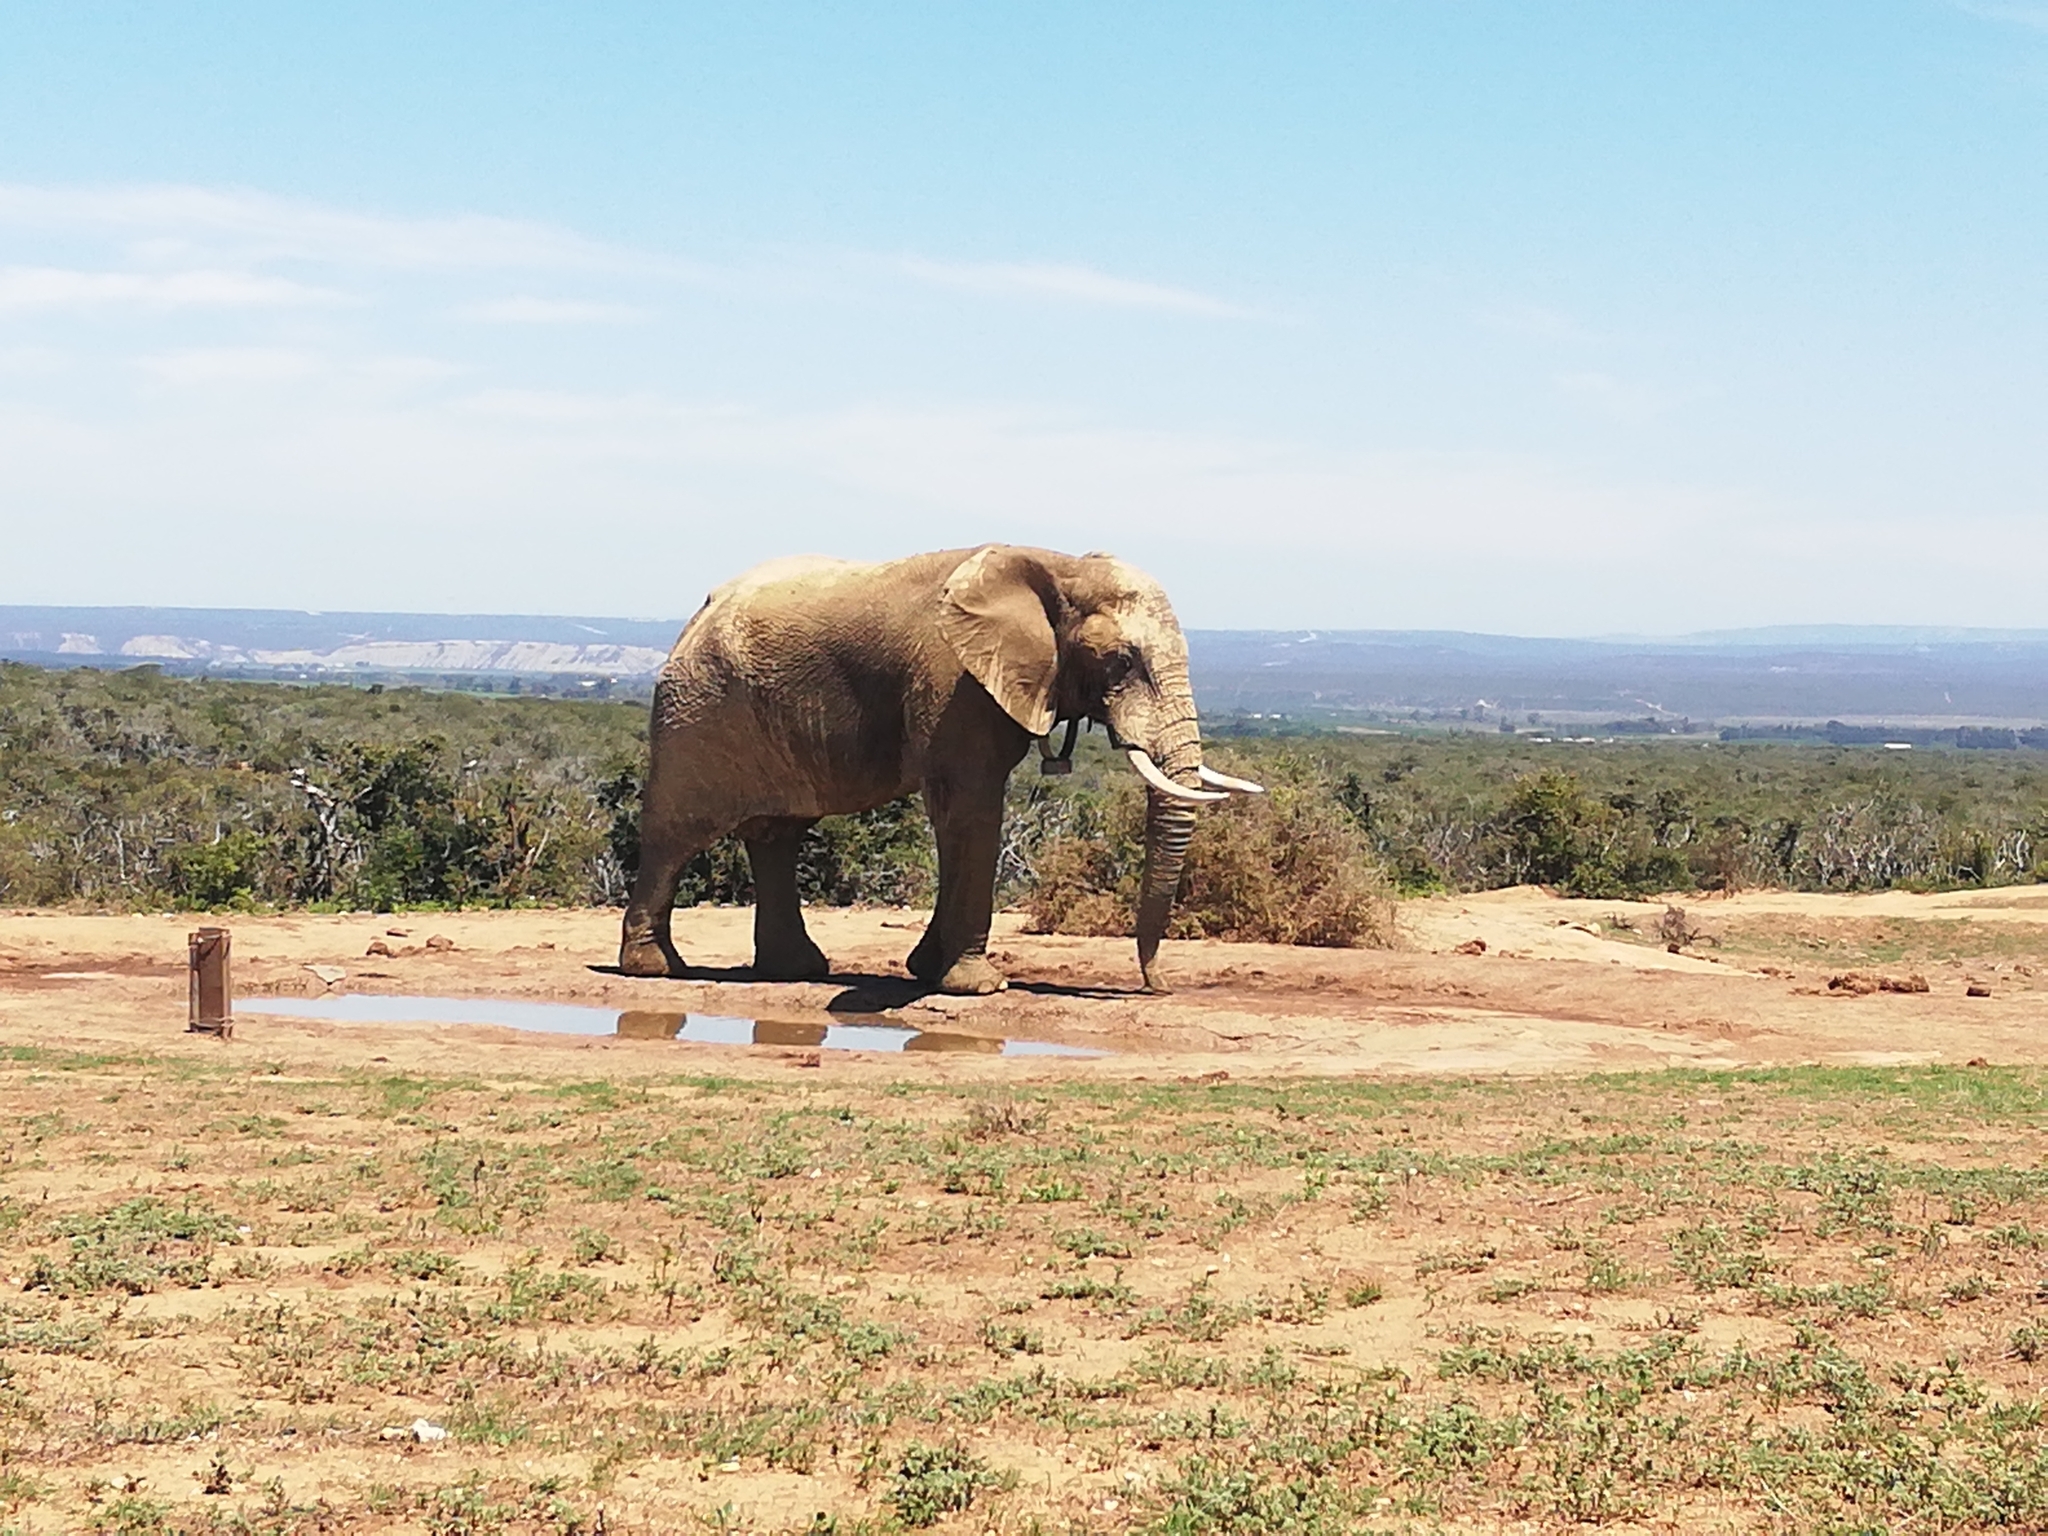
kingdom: Animalia
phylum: Chordata
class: Mammalia
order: Proboscidea
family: Elephantidae
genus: Loxodonta
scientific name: Loxodonta africana
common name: African elephant
